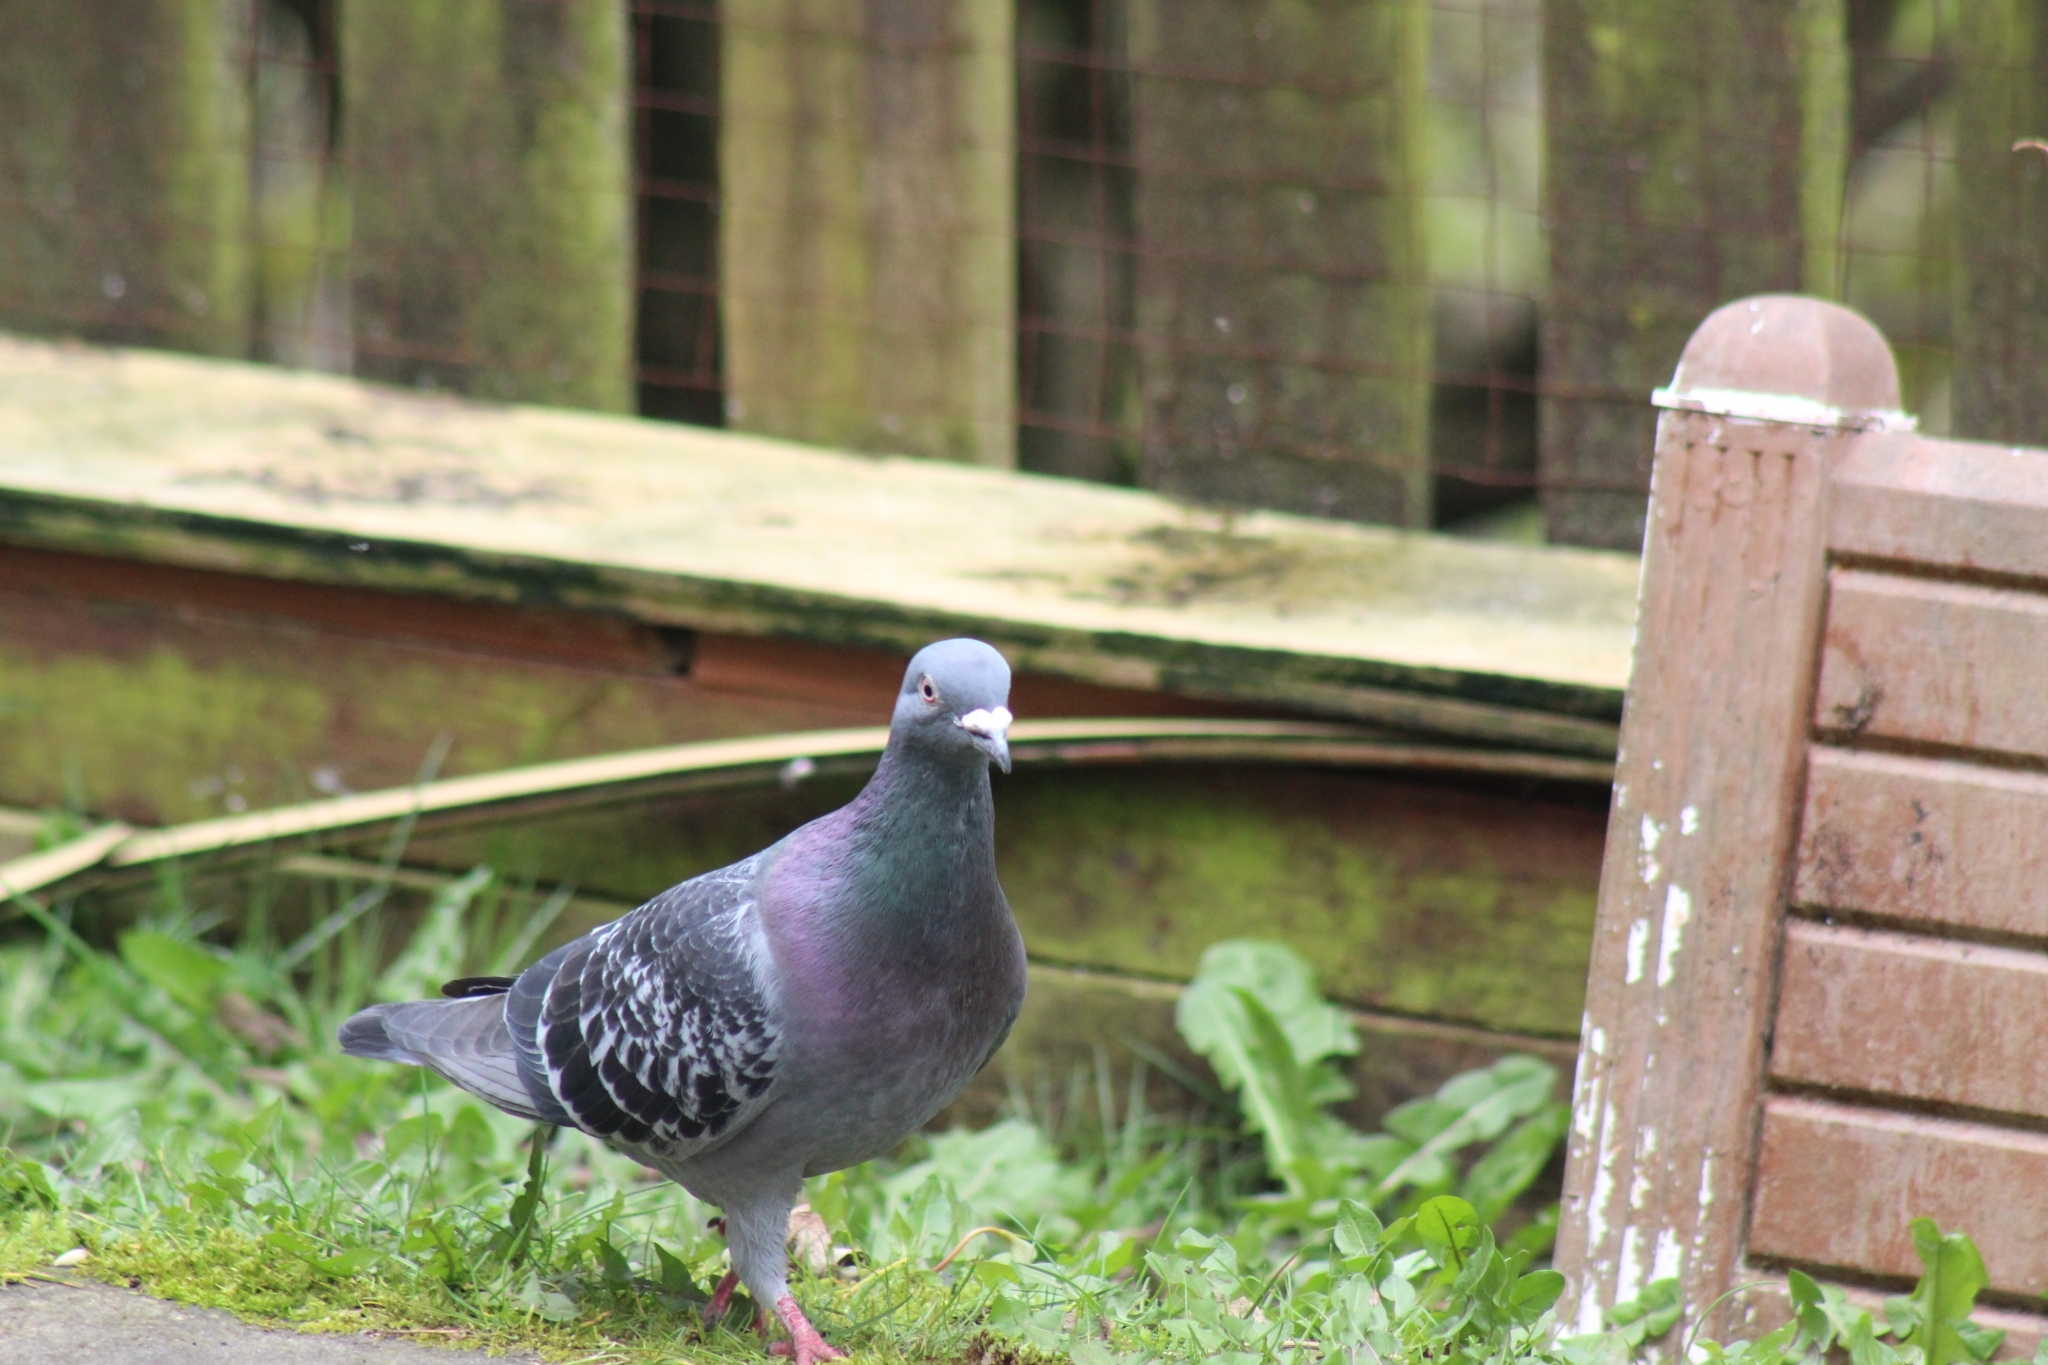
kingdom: Animalia
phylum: Chordata
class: Aves
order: Columbiformes
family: Columbidae
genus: Columba
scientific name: Columba livia
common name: Rock pigeon
